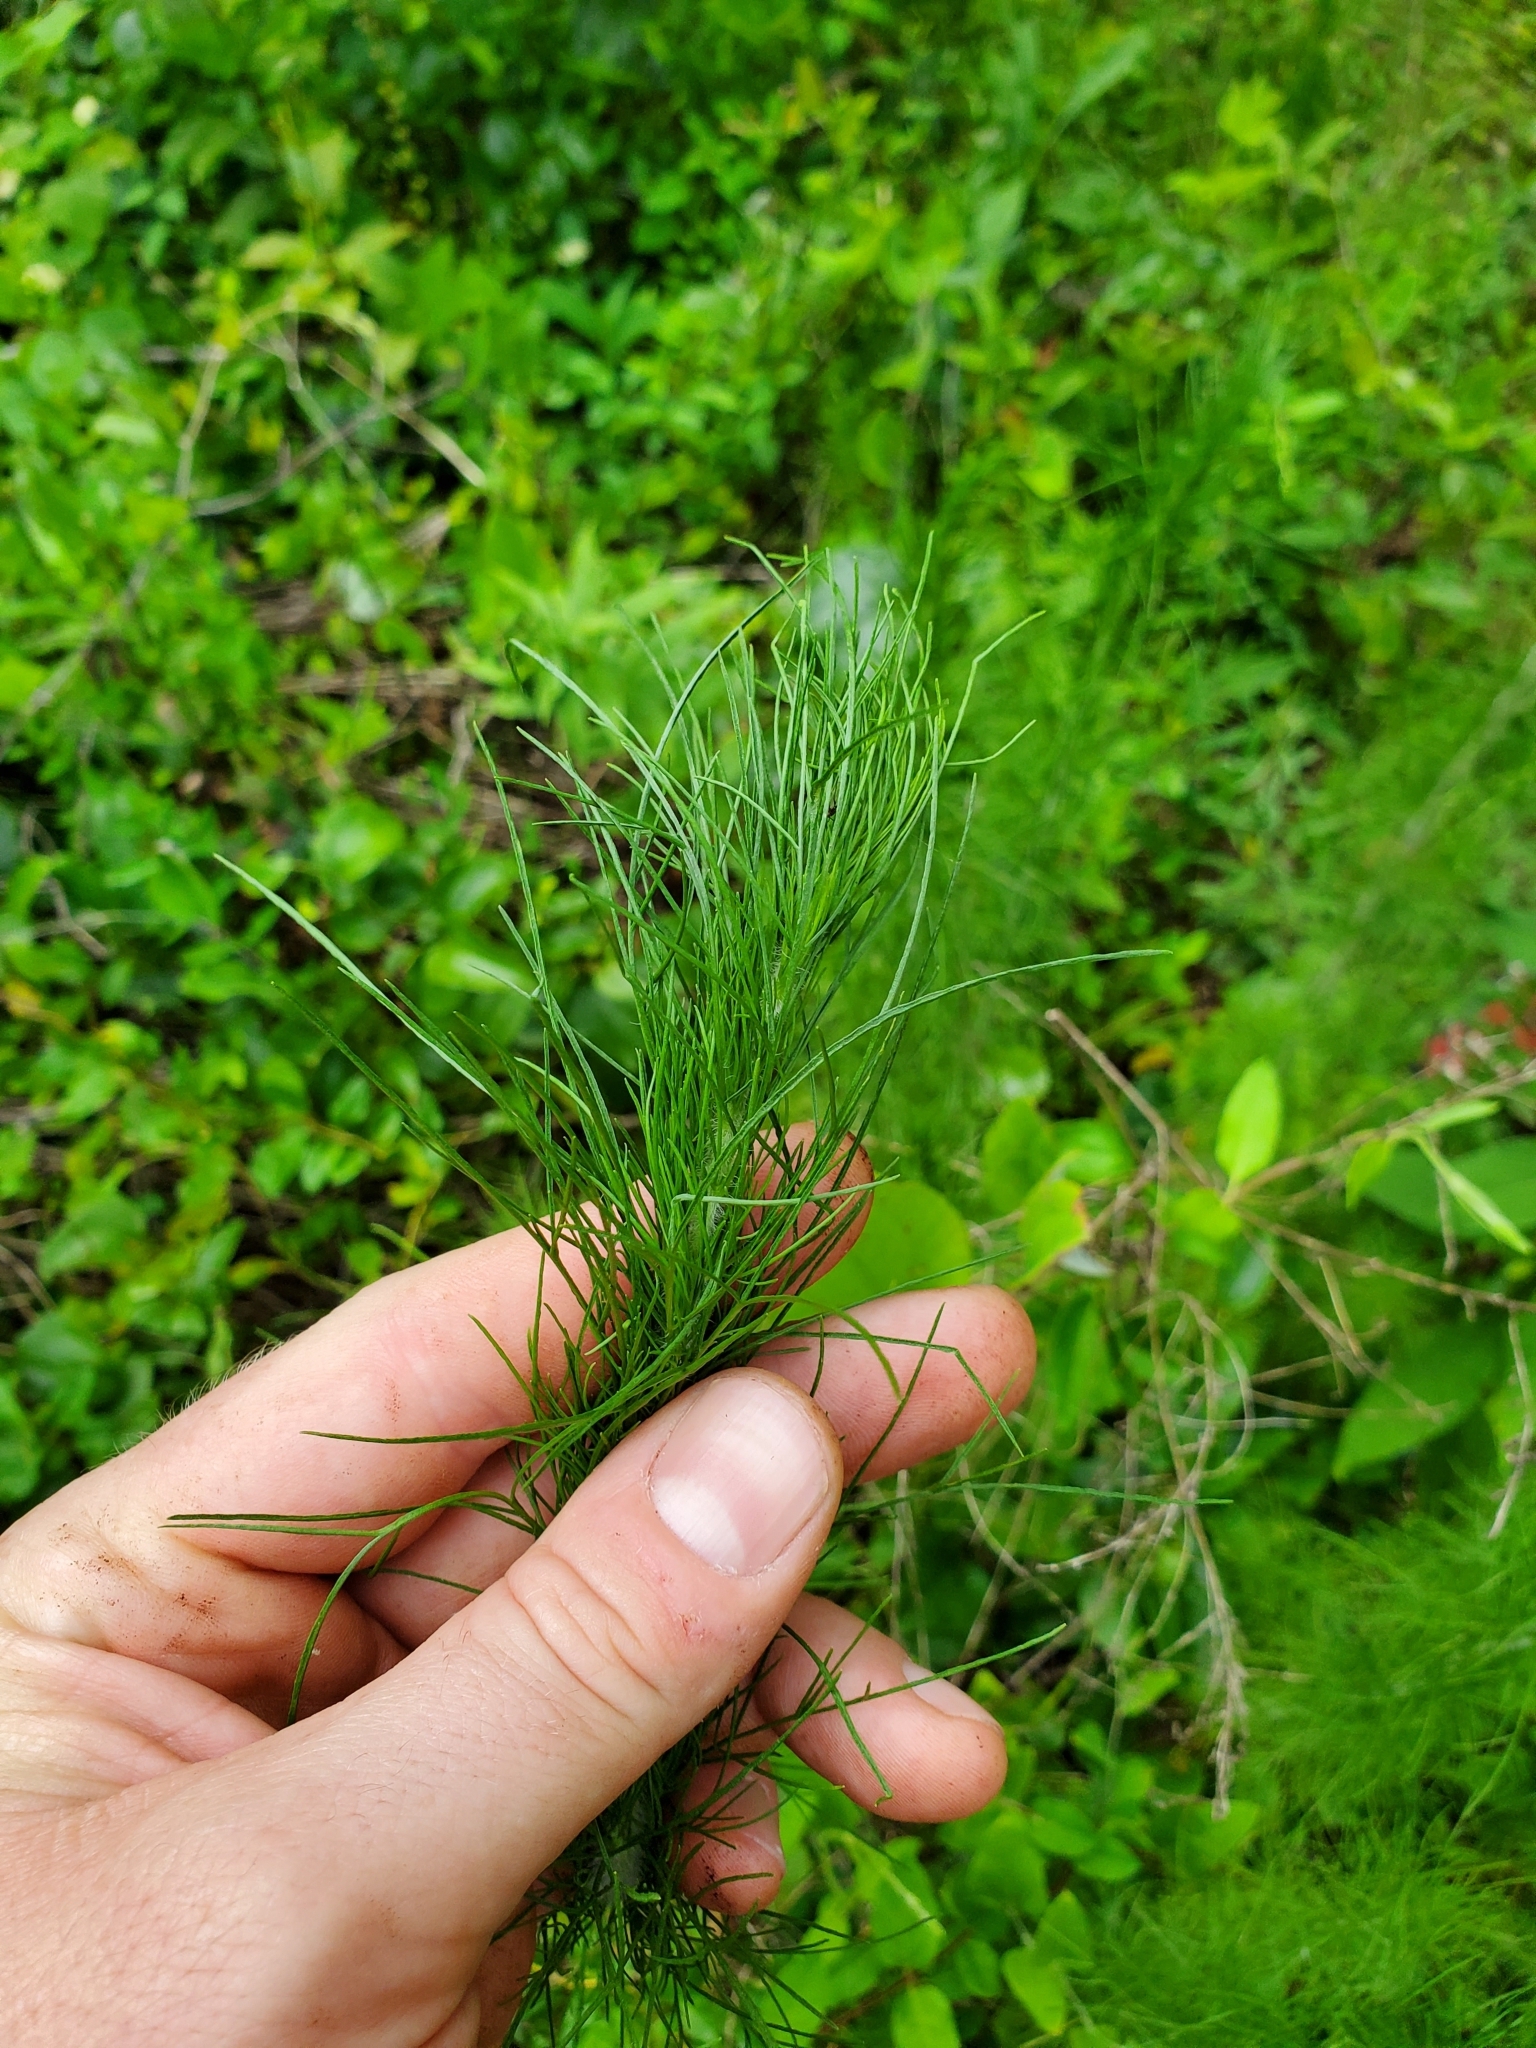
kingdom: Plantae
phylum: Tracheophyta
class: Magnoliopsida
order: Asterales
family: Asteraceae
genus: Eupatorium
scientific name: Eupatorium capillifolium
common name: Dog-fennel
